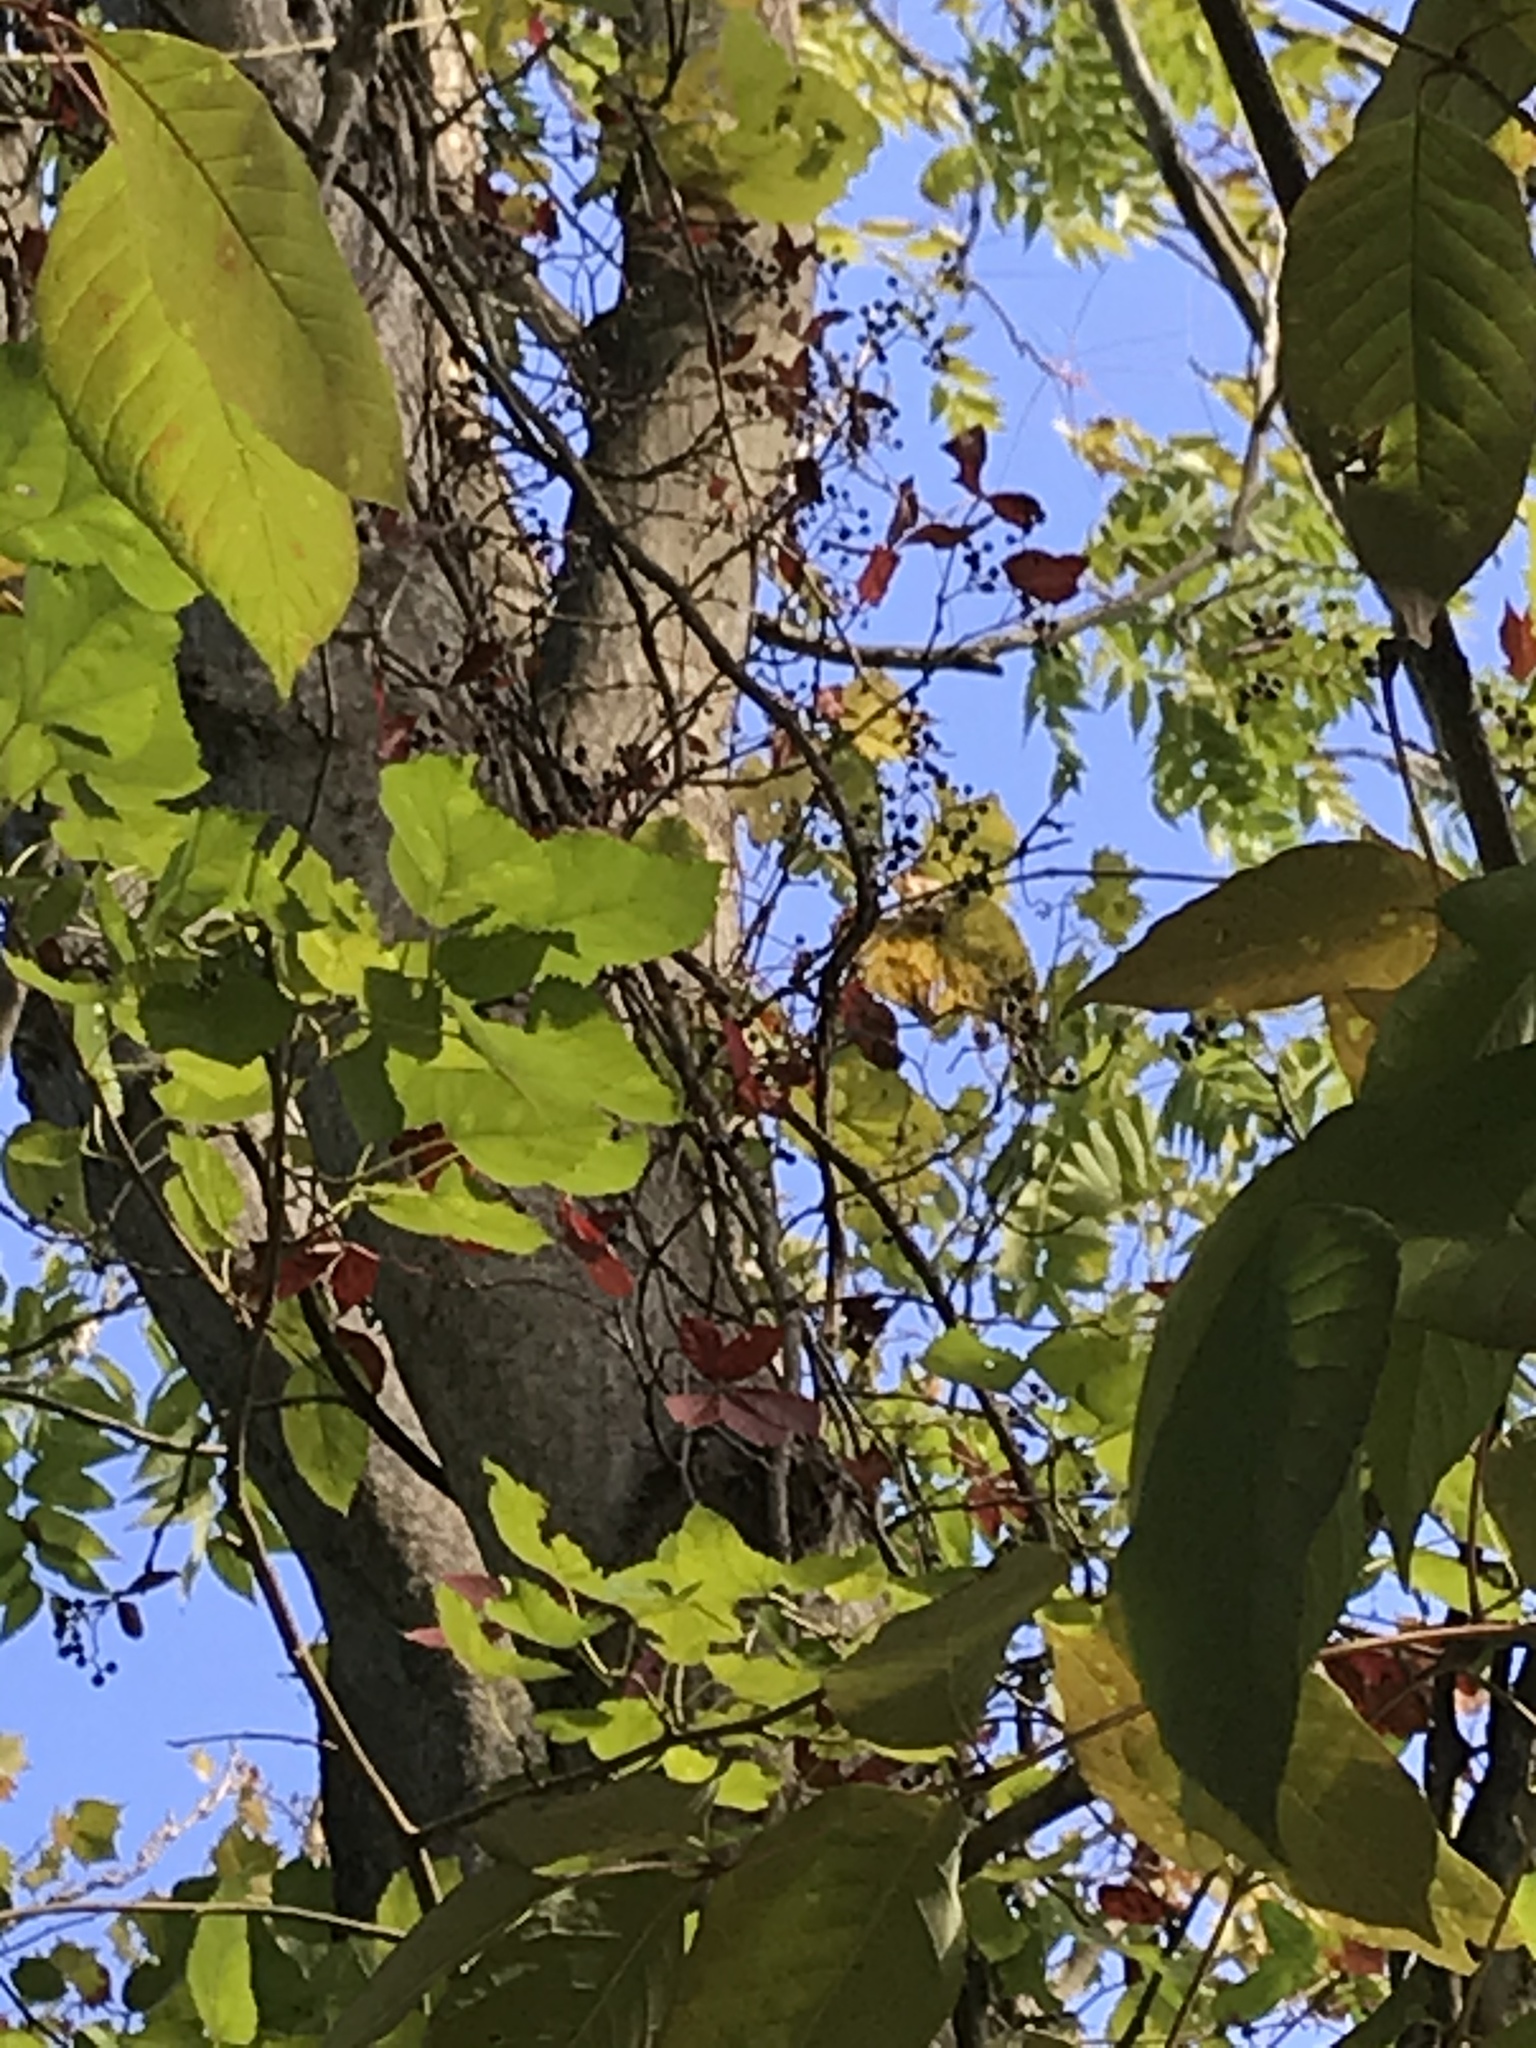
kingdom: Plantae
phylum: Tracheophyta
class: Magnoliopsida
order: Vitales
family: Vitaceae
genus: Parthenocissus
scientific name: Parthenocissus inserta
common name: False virginia-creeper
